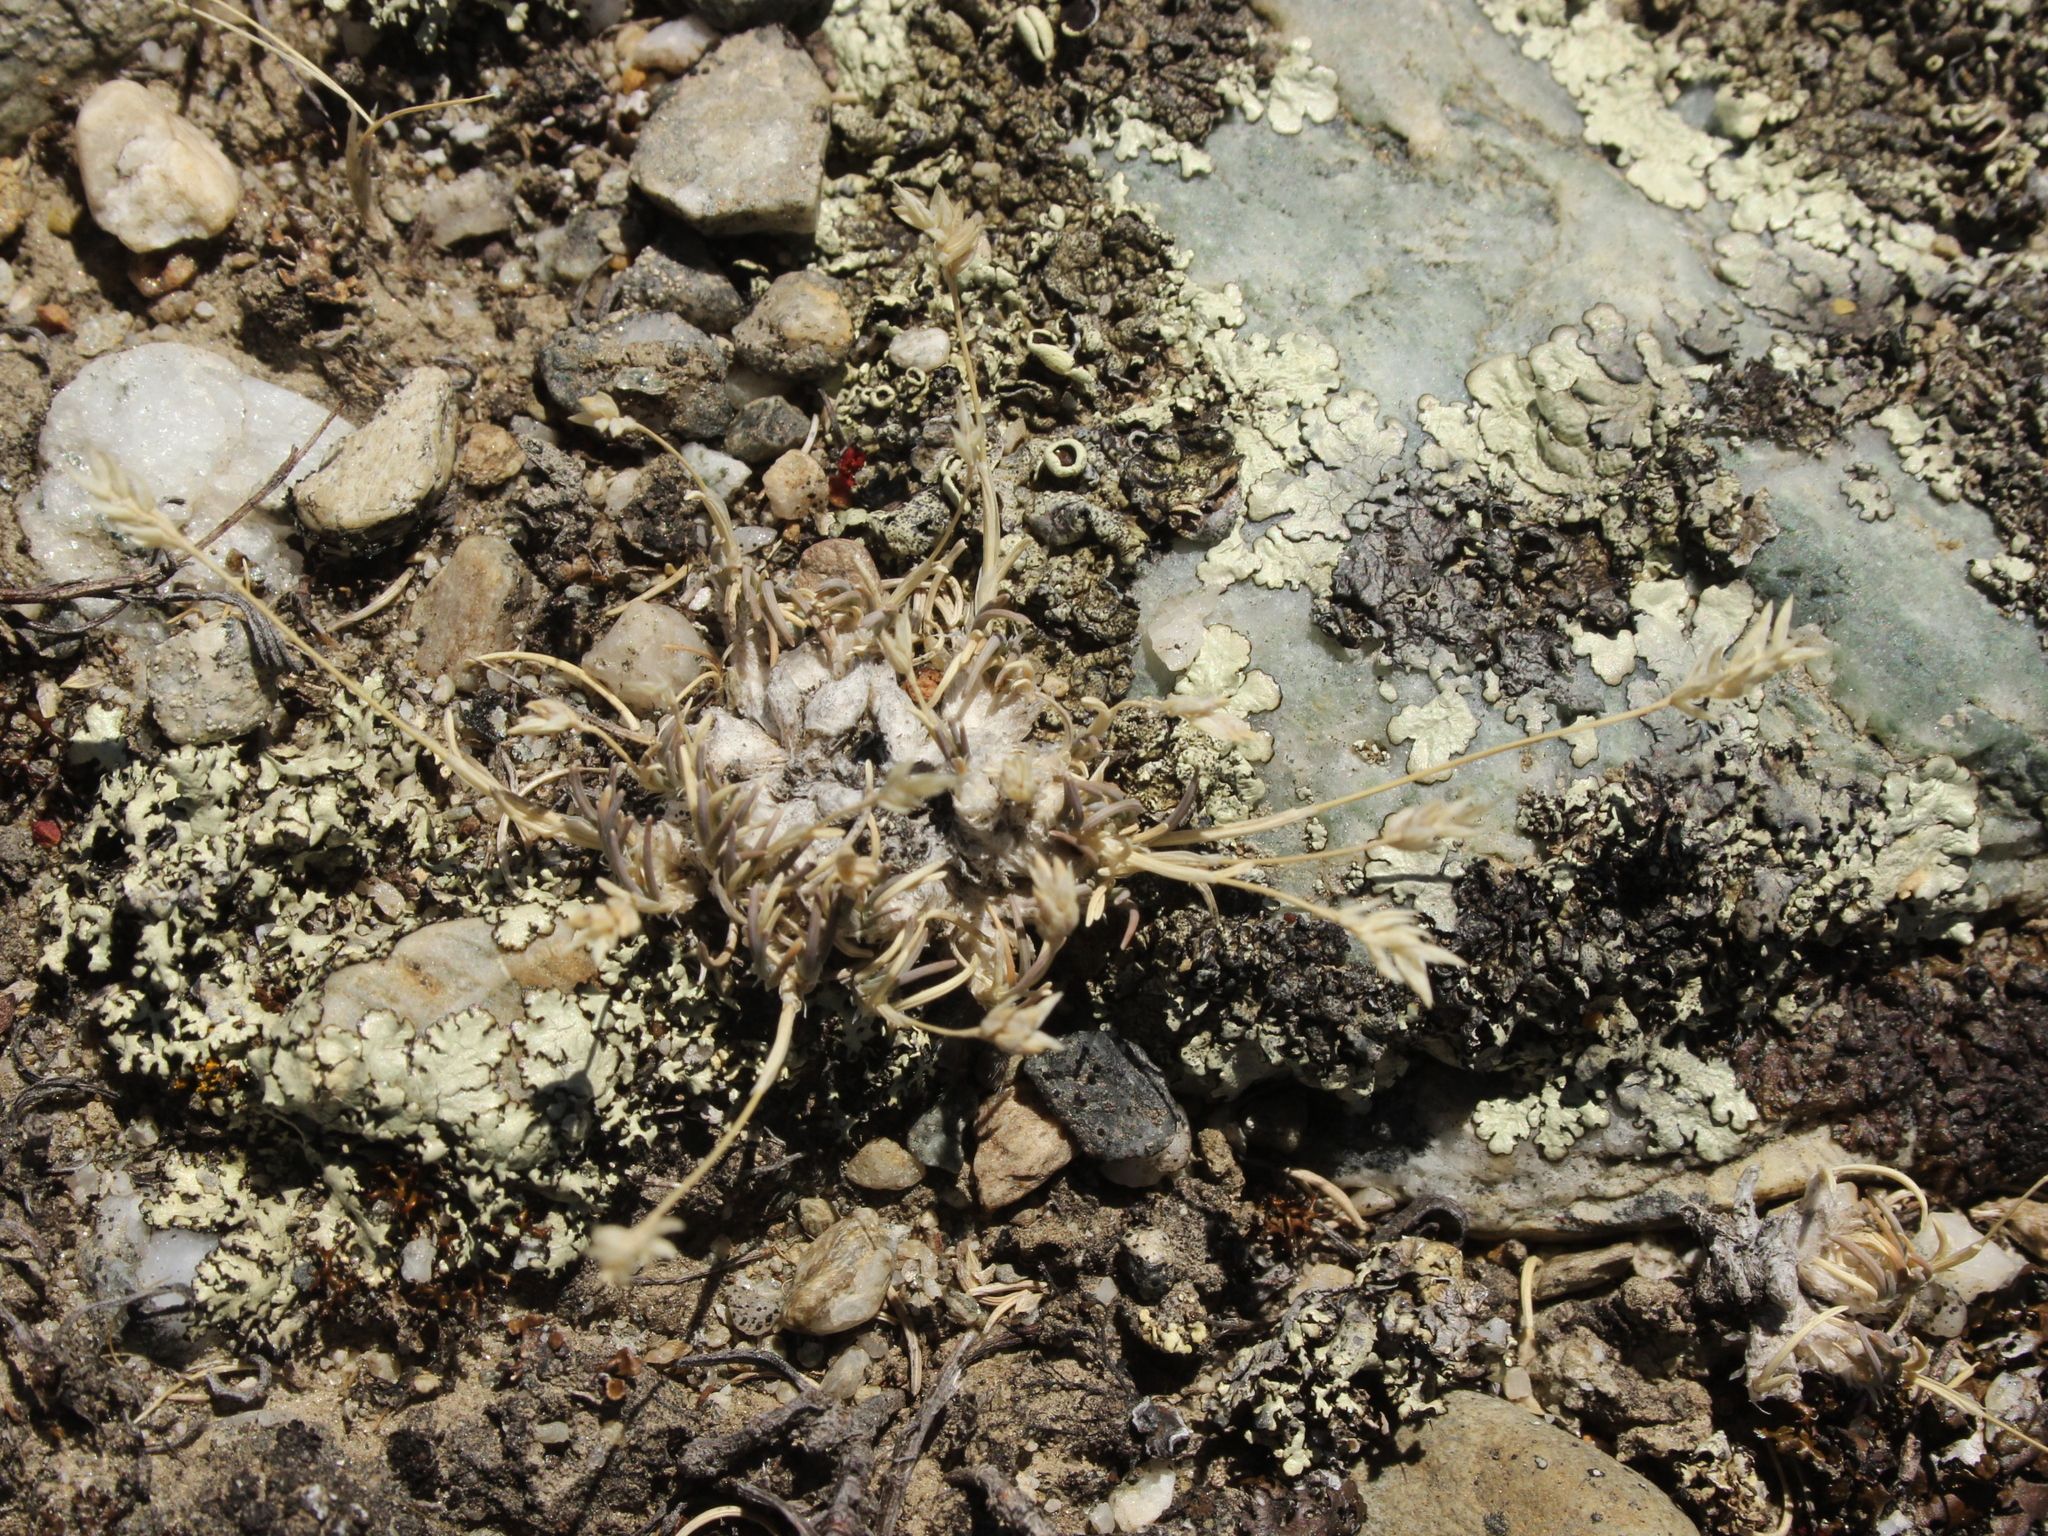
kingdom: Plantae
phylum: Tracheophyta
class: Liliopsida
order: Poales
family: Poaceae
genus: Poa
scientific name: Poa maniototo
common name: Desert poa
